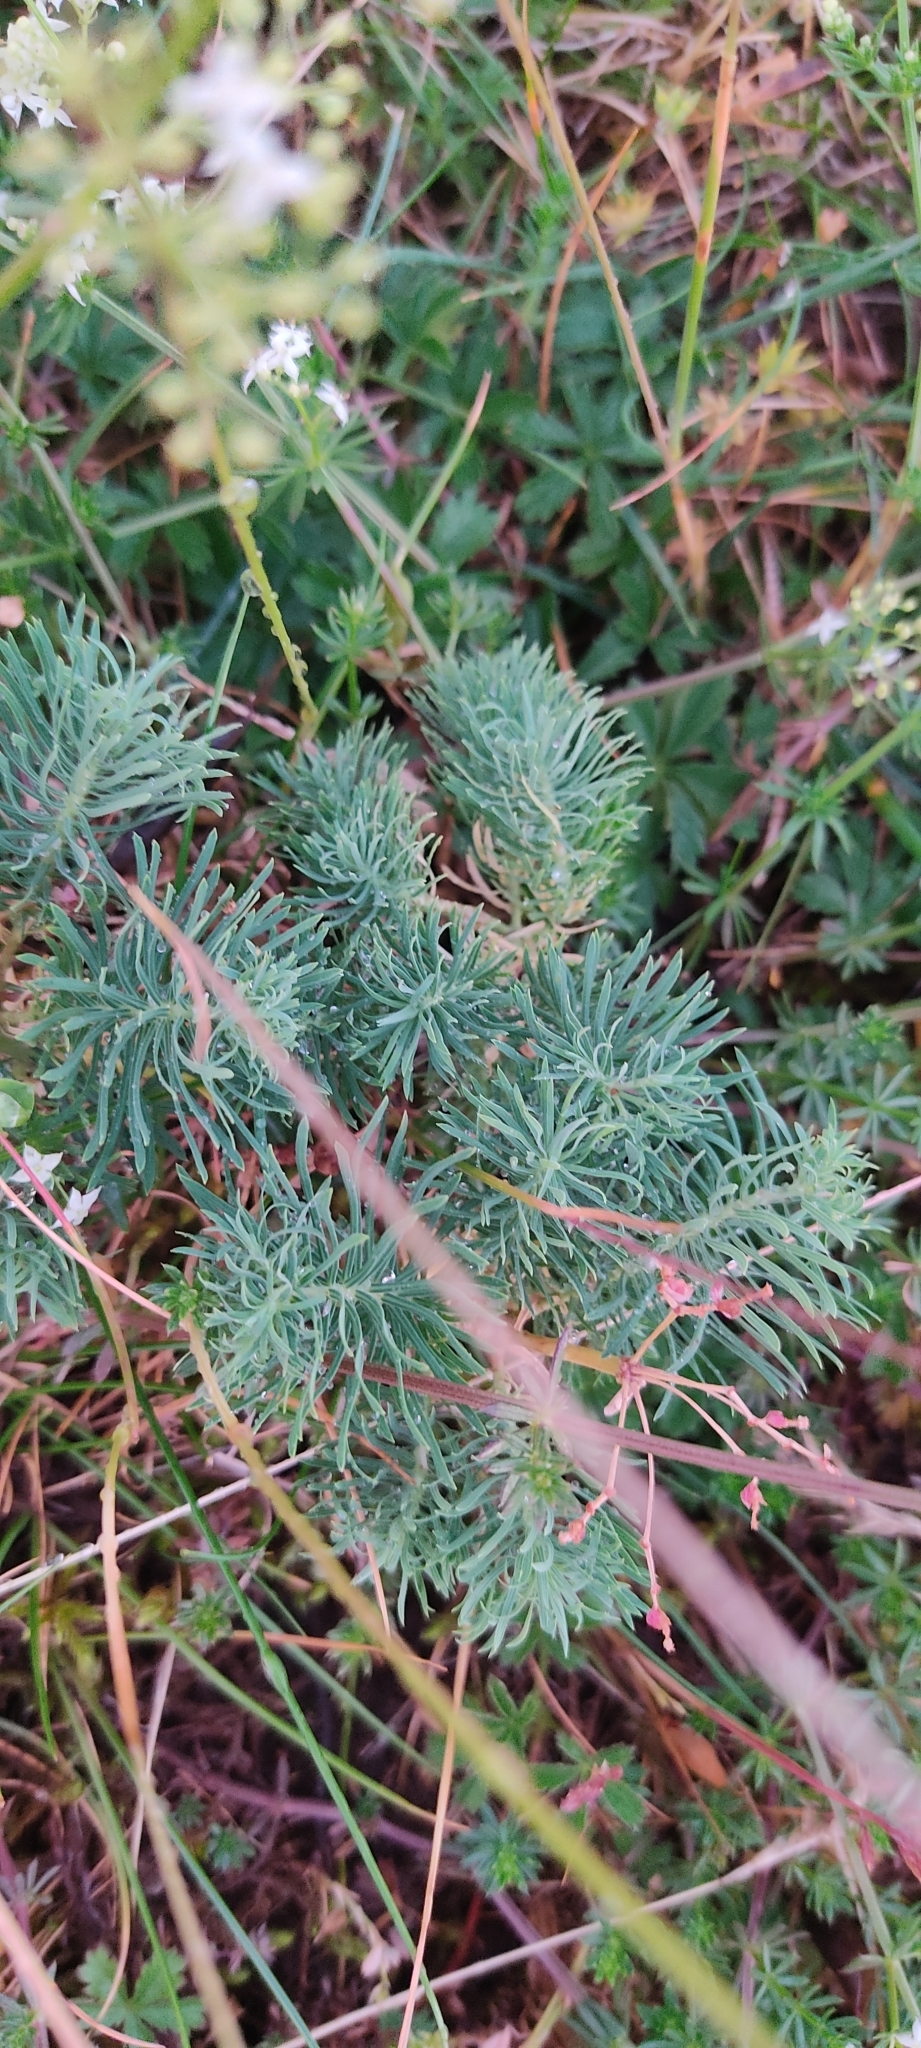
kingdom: Plantae
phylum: Tracheophyta
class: Magnoliopsida
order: Malpighiales
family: Euphorbiaceae
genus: Euphorbia
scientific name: Euphorbia cyparissias
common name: Cypress spurge
